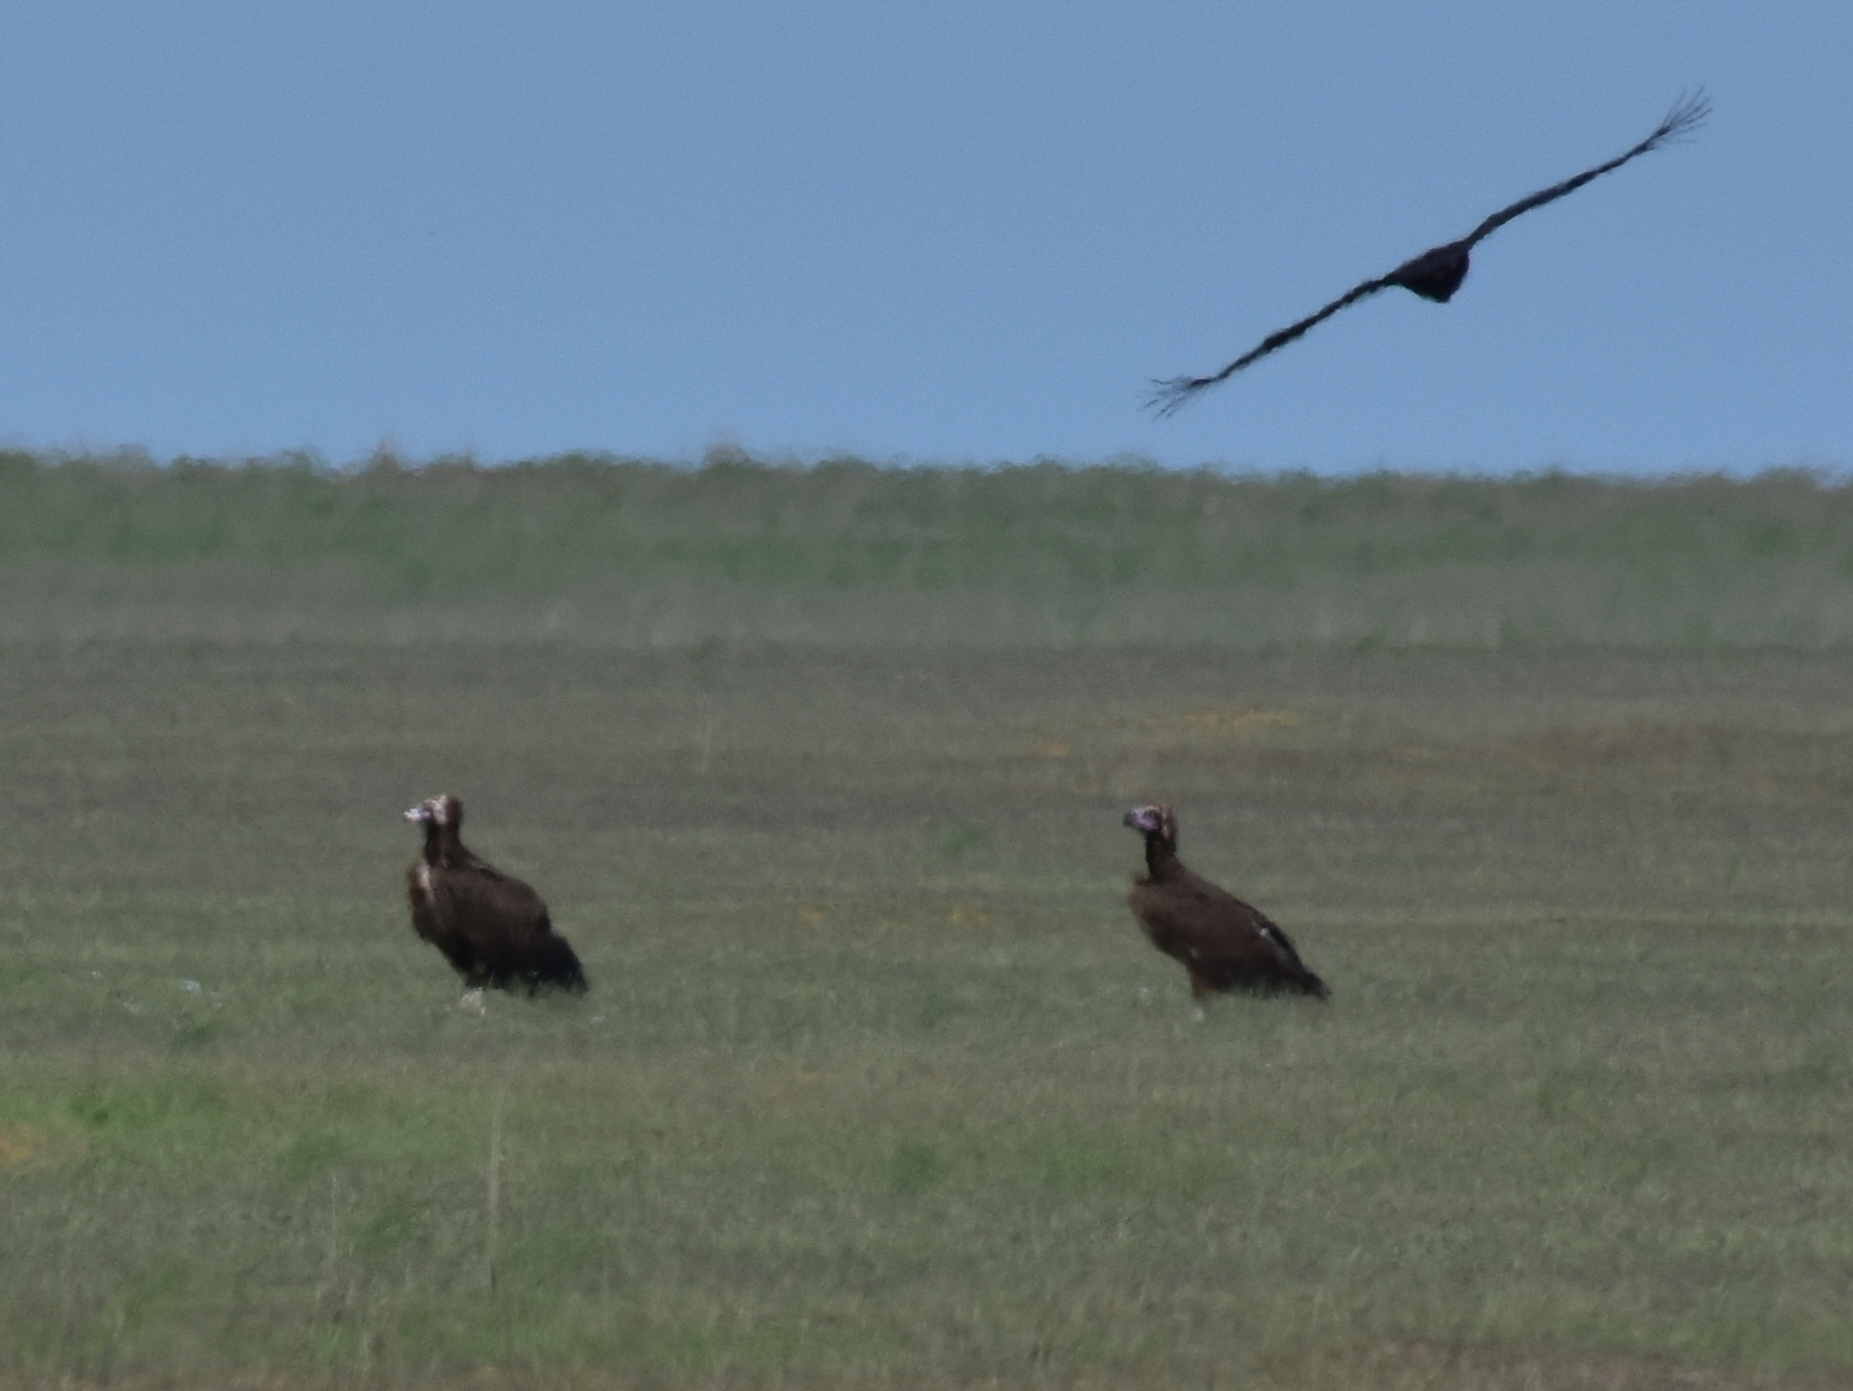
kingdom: Animalia
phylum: Chordata
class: Aves
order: Accipitriformes
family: Accipitridae
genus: Aegypius
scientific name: Aegypius monachus
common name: Cinereous vulture
